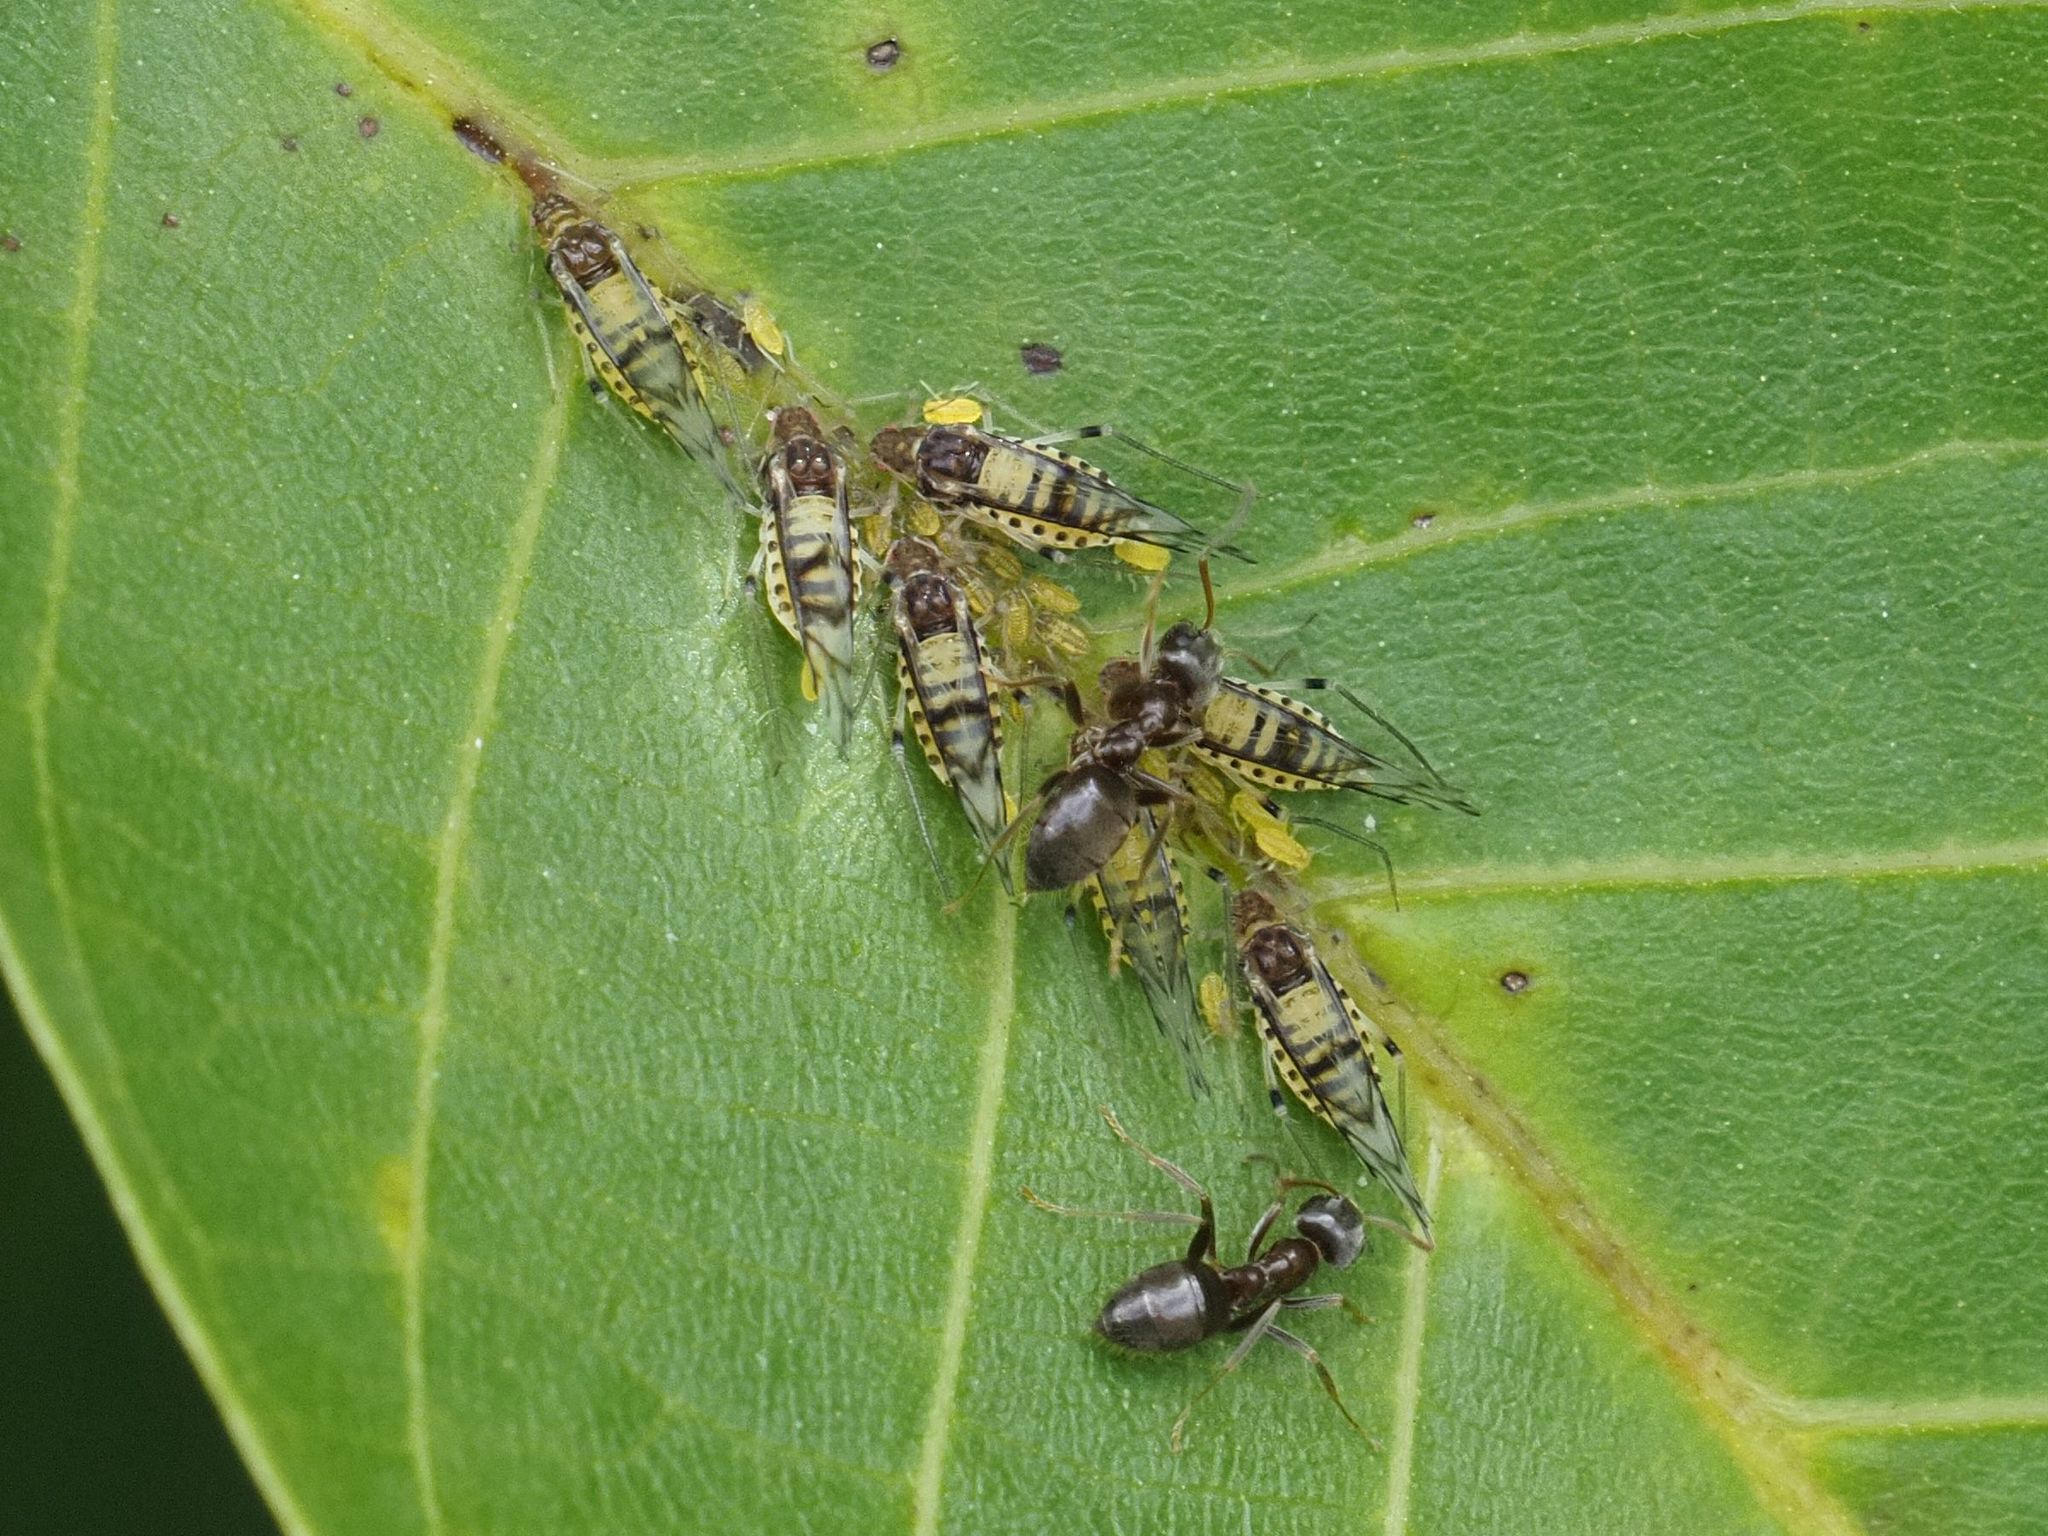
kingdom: Animalia
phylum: Arthropoda
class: Insecta
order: Hemiptera
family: Aphididae
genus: Panaphis
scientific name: Panaphis juglandis
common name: Large walnut aphid
